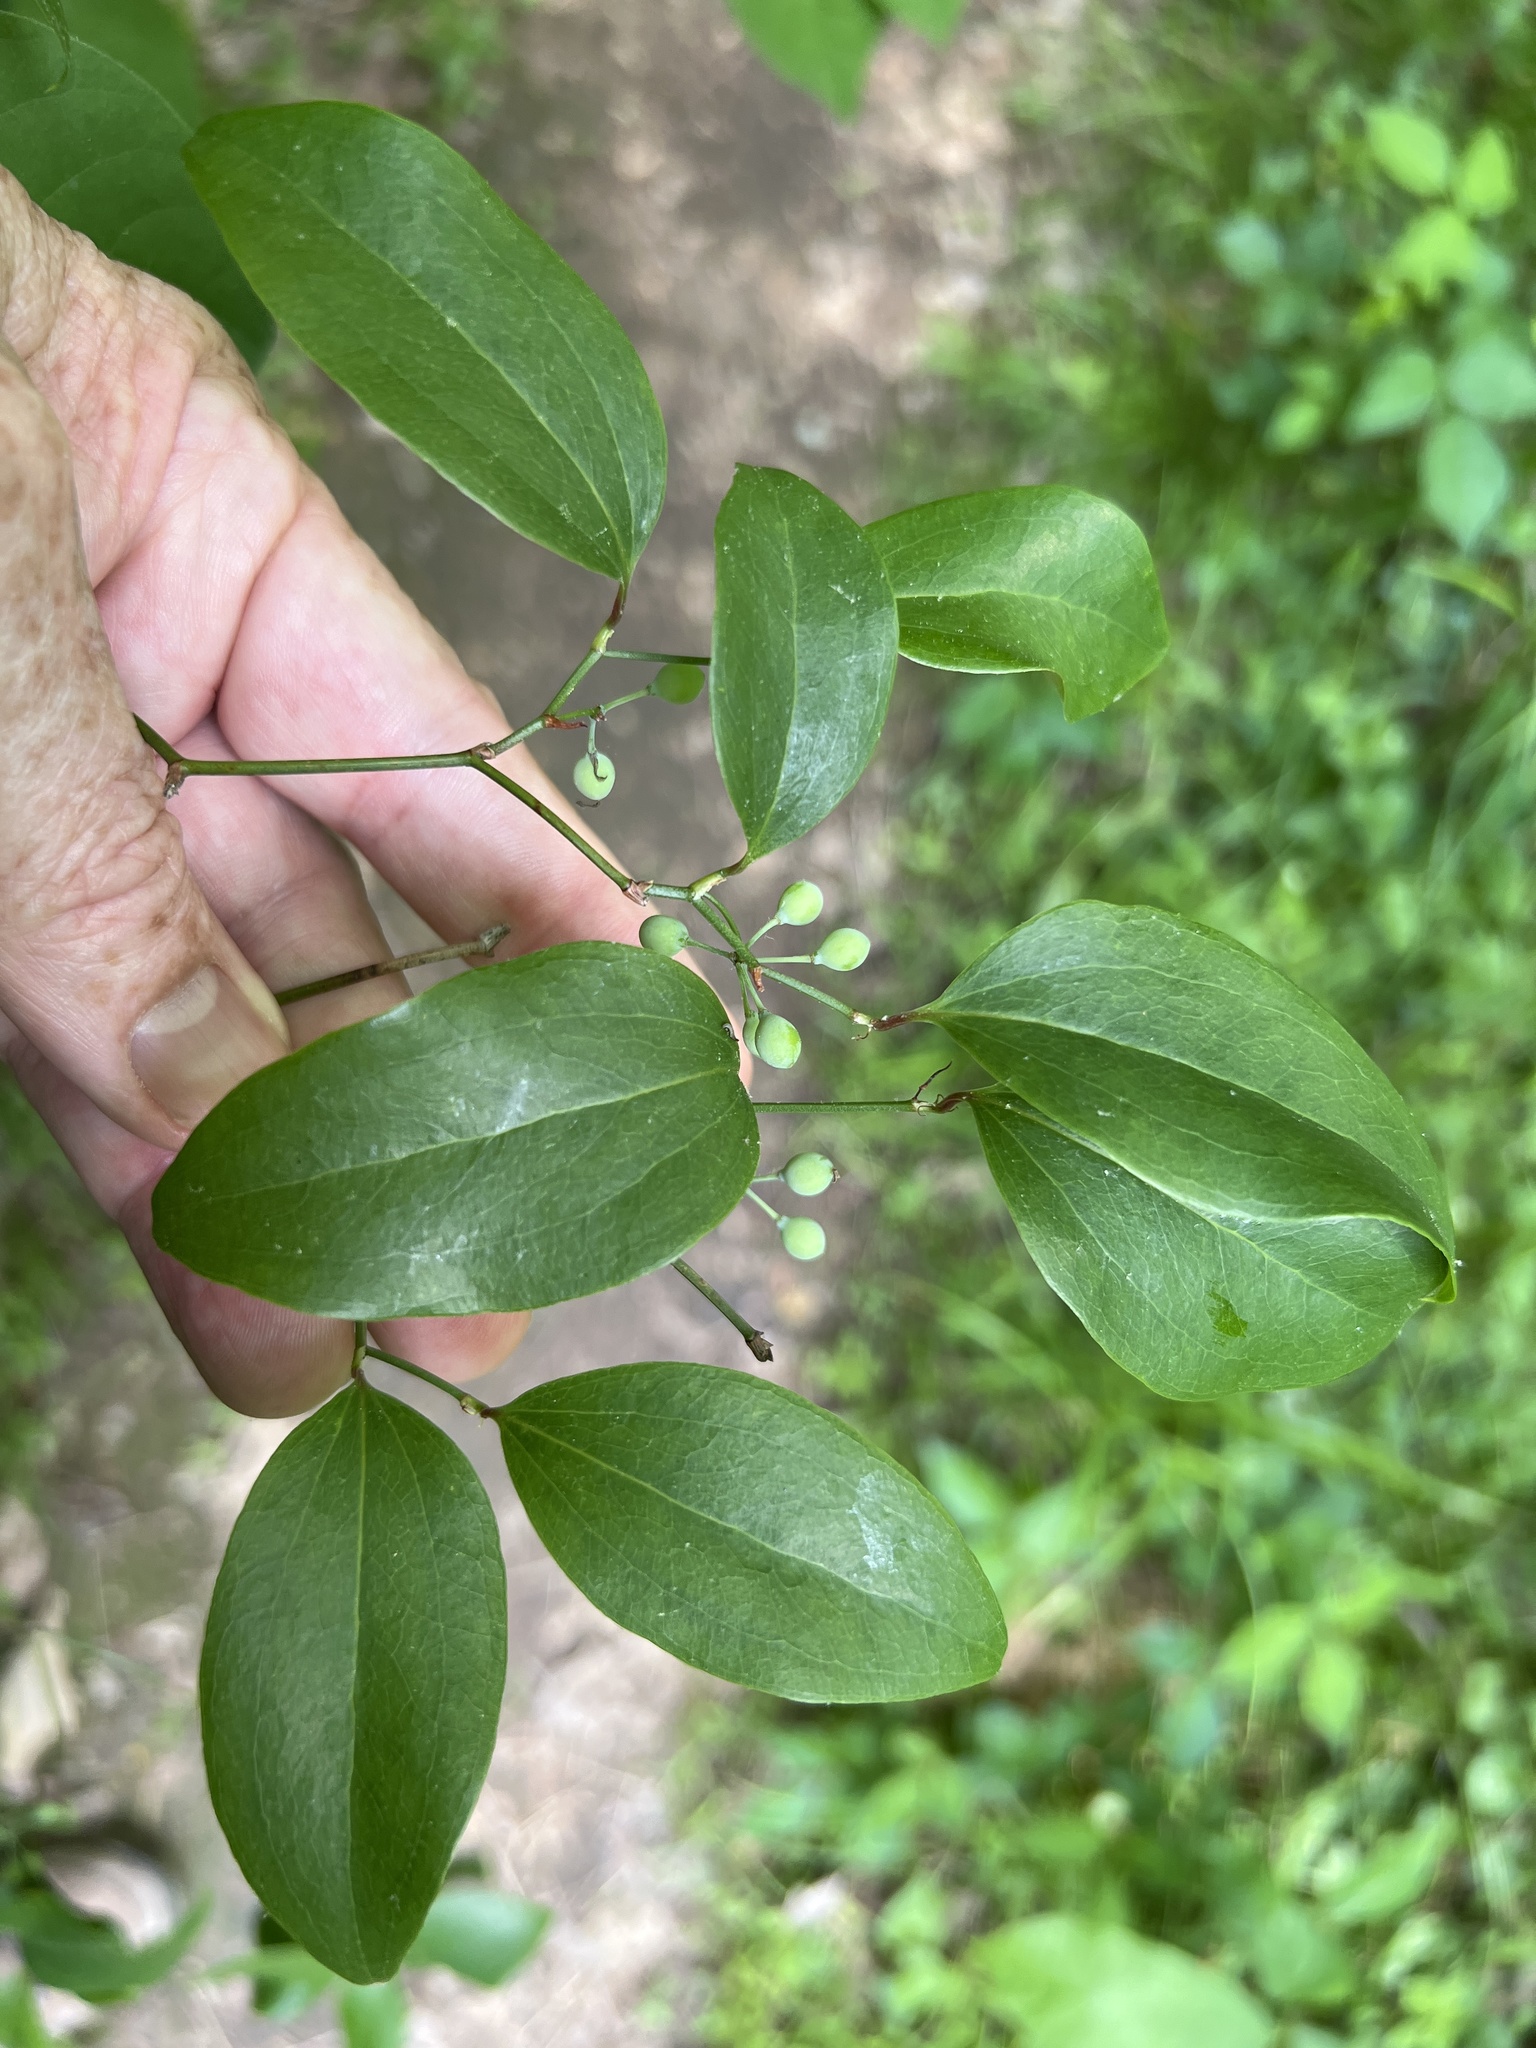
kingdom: Plantae
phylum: Tracheophyta
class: Liliopsida
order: Liliales
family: Smilacaceae
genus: Smilax
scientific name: Smilax maritima
